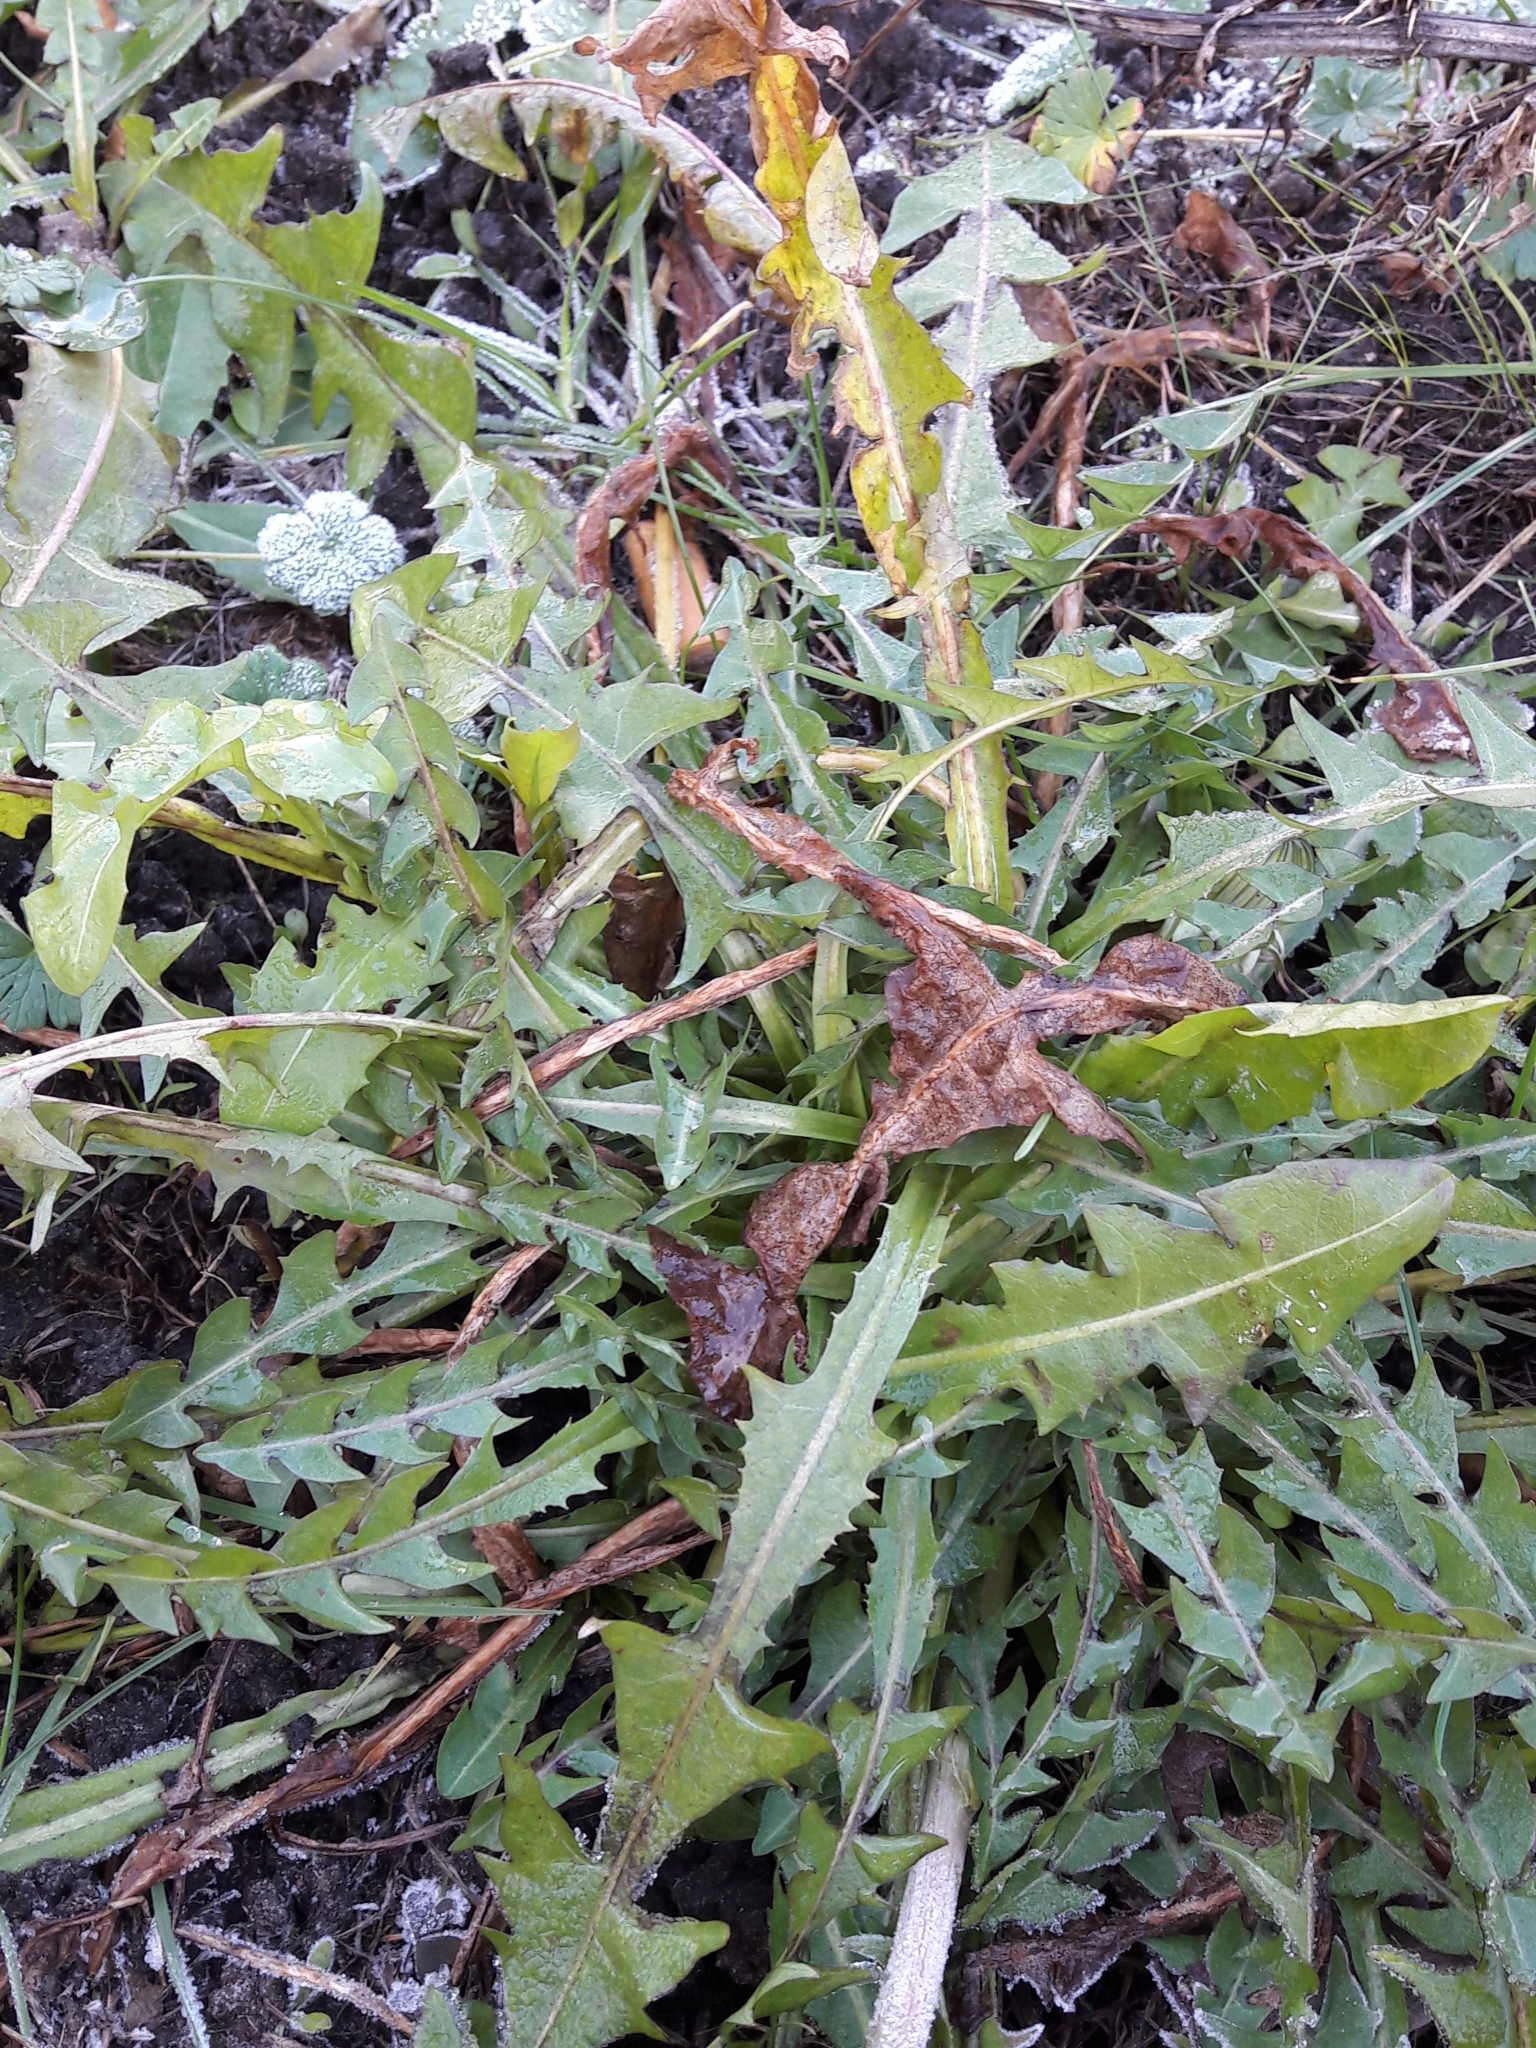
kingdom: Plantae
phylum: Tracheophyta
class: Magnoliopsida
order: Asterales
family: Asteraceae
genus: Taraxacum
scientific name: Taraxacum officinale
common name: Common dandelion
